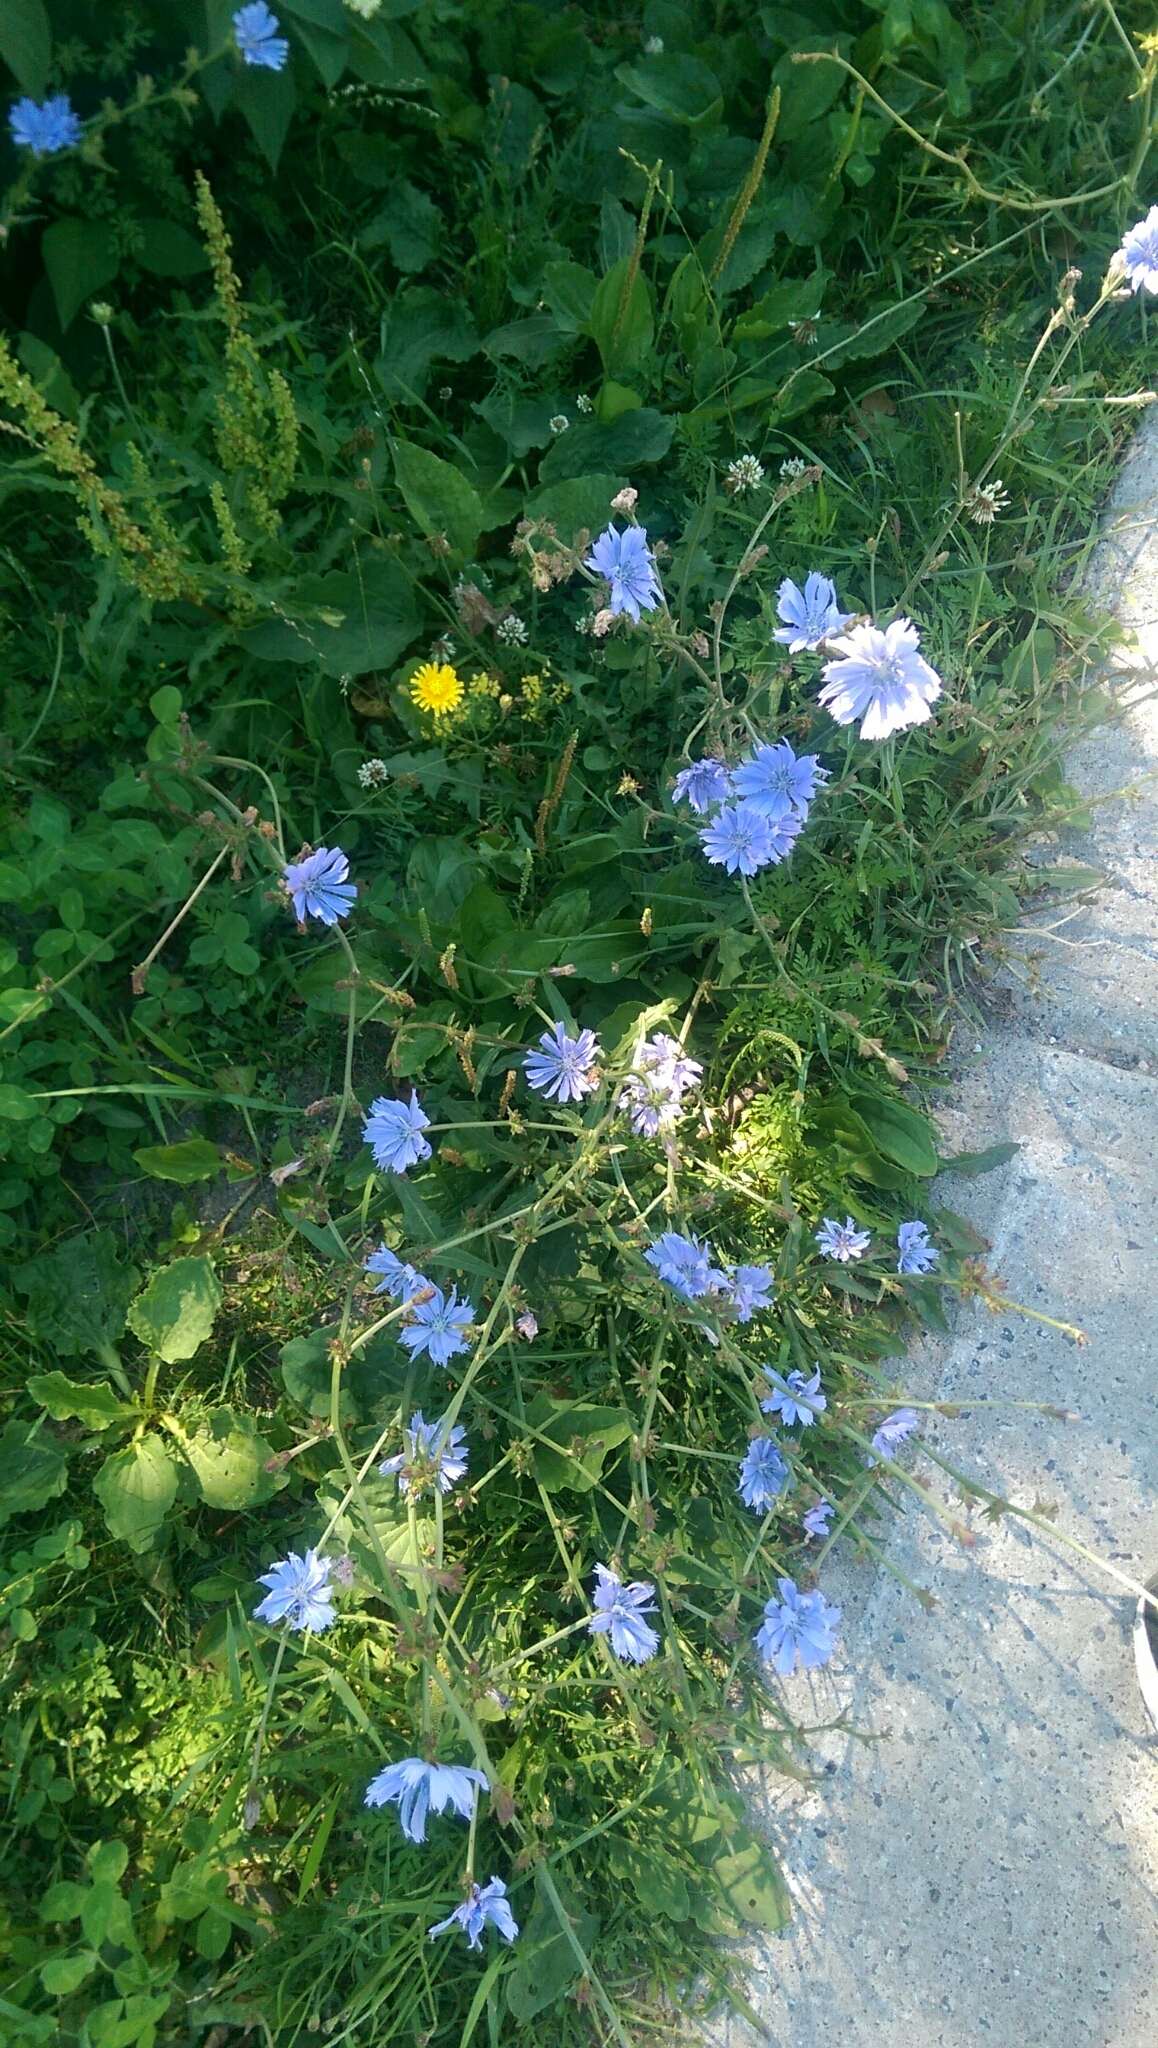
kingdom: Plantae
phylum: Tracheophyta
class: Magnoliopsida
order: Asterales
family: Asteraceae
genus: Cichorium
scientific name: Cichorium intybus
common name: Chicory
